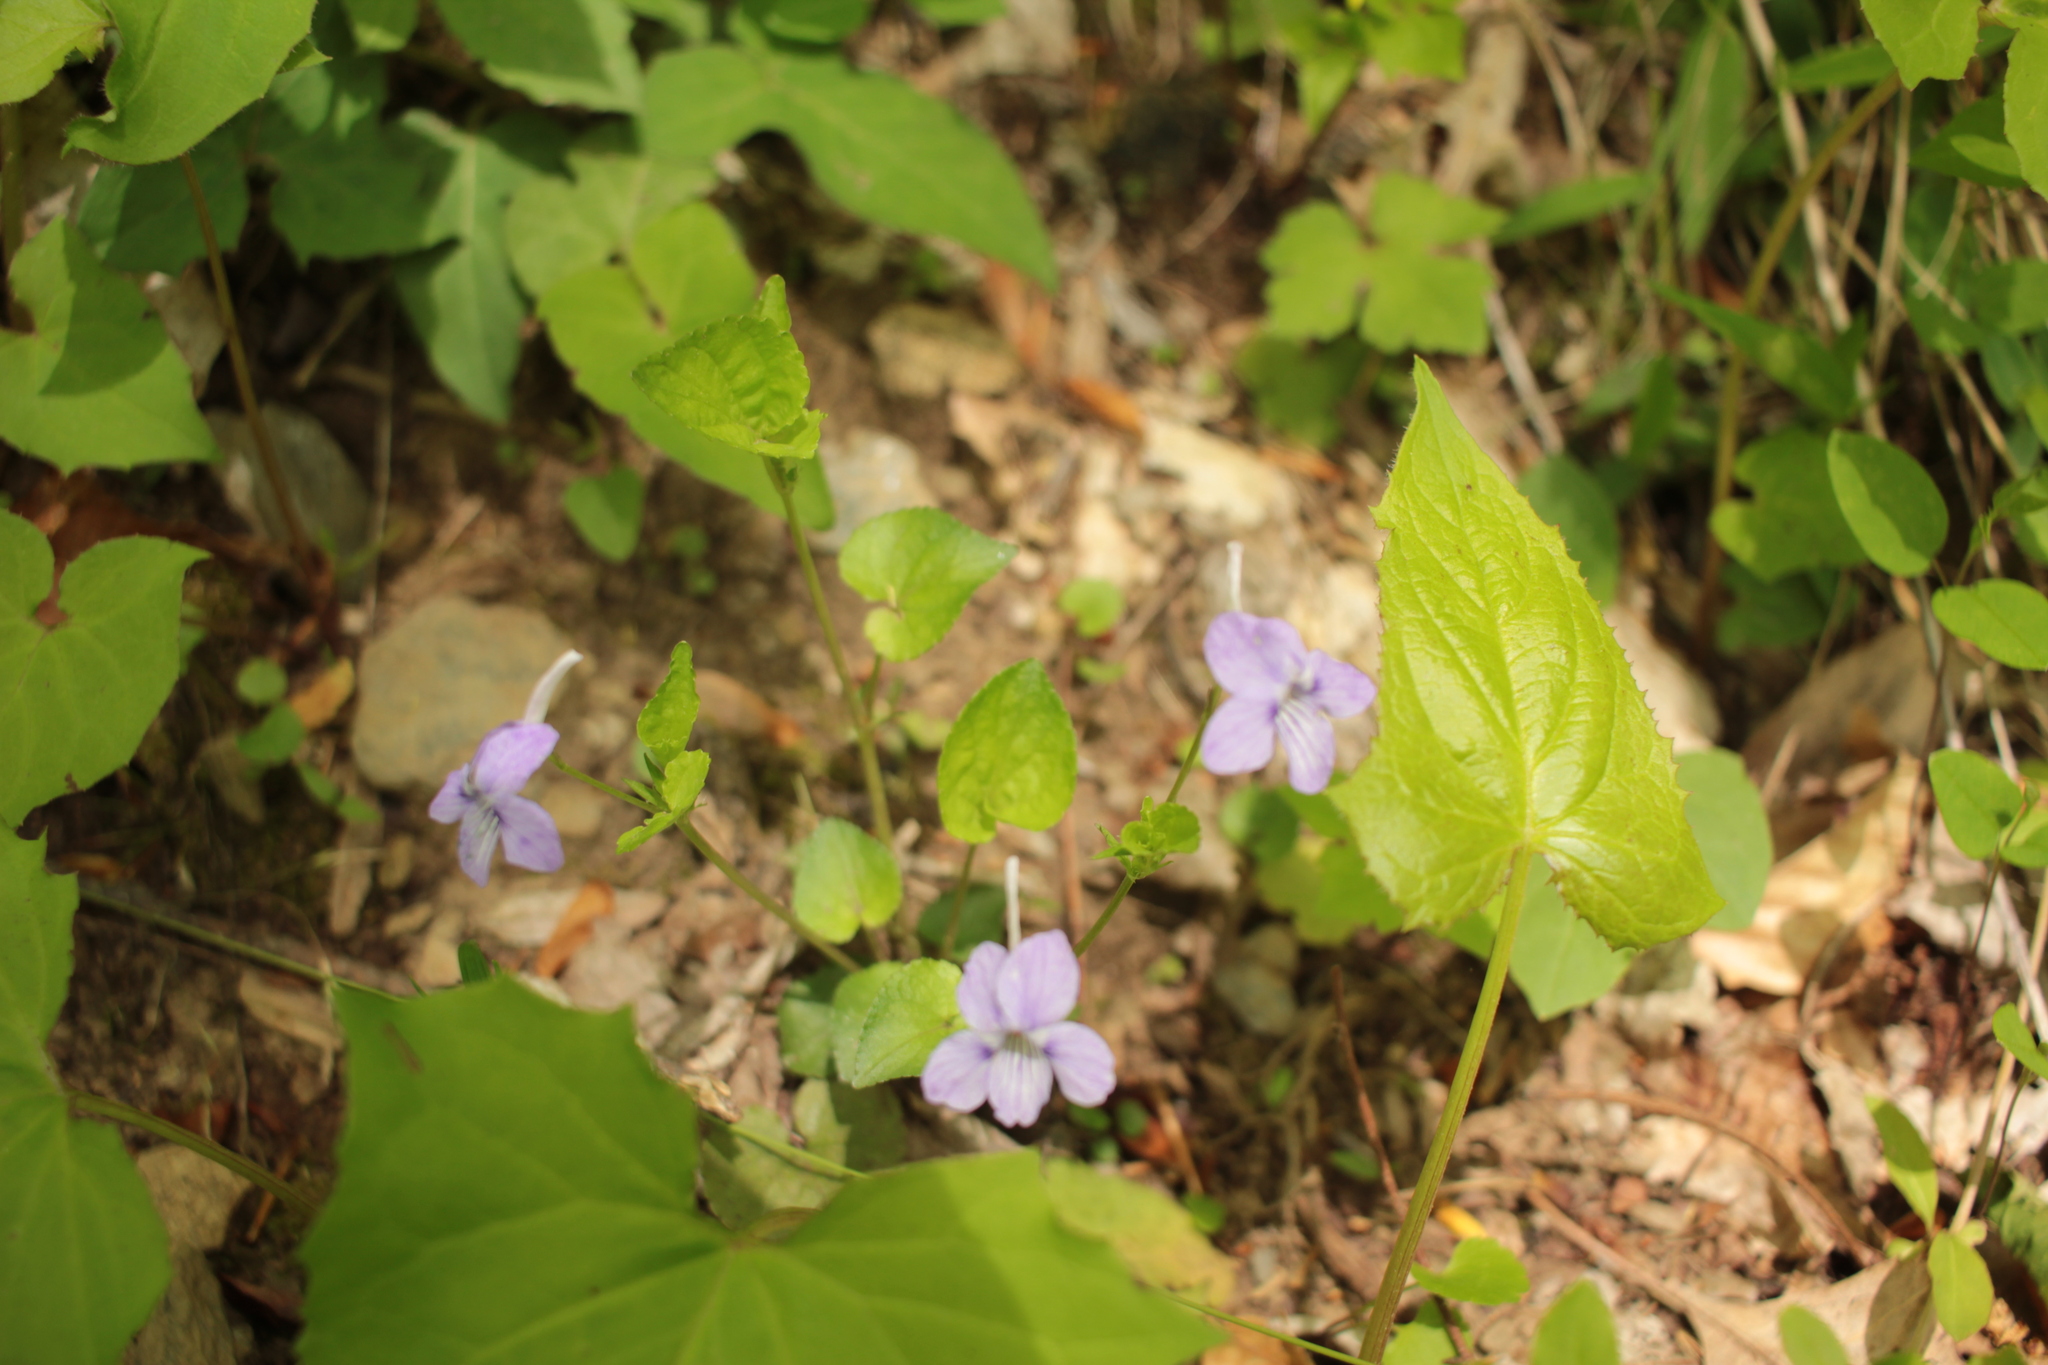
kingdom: Plantae
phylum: Tracheophyta
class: Magnoliopsida
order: Malpighiales
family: Violaceae
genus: Viola
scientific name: Viola rostrata
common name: Long-spur violet
